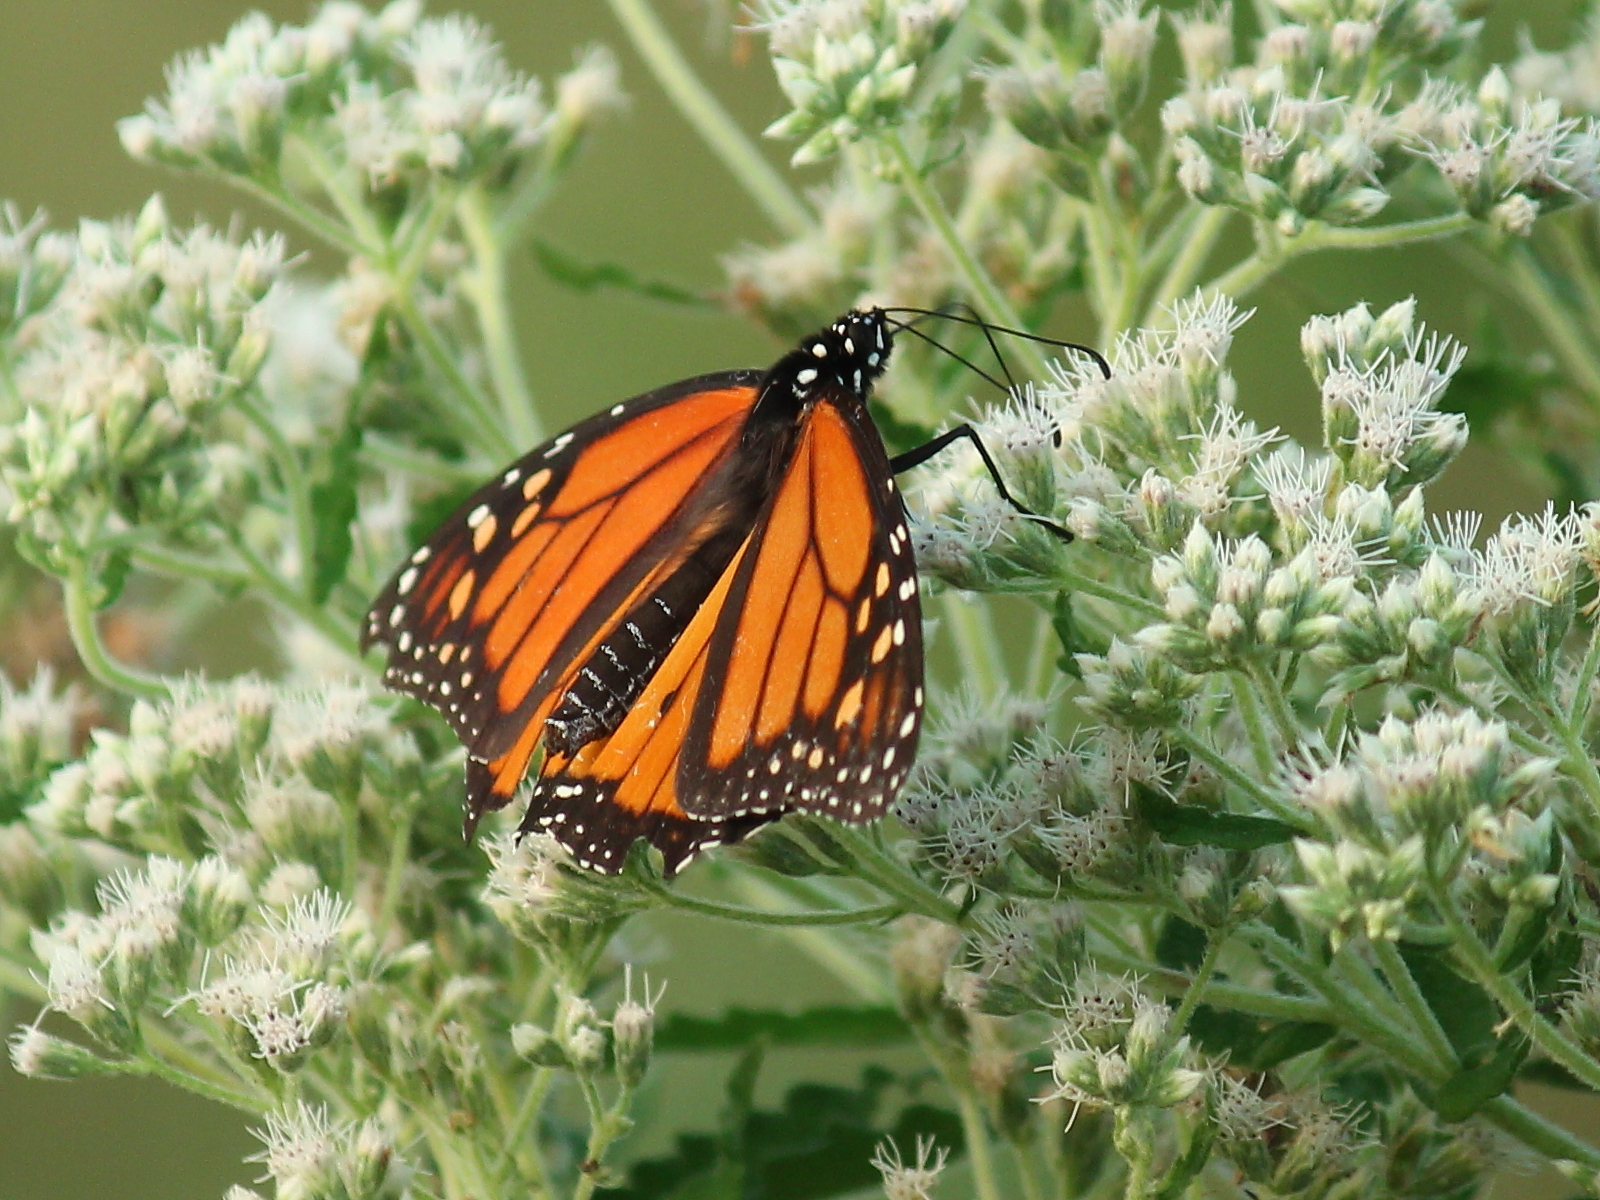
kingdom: Animalia
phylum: Arthropoda
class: Insecta
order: Lepidoptera
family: Nymphalidae
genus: Danaus
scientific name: Danaus plexippus
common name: Monarch
